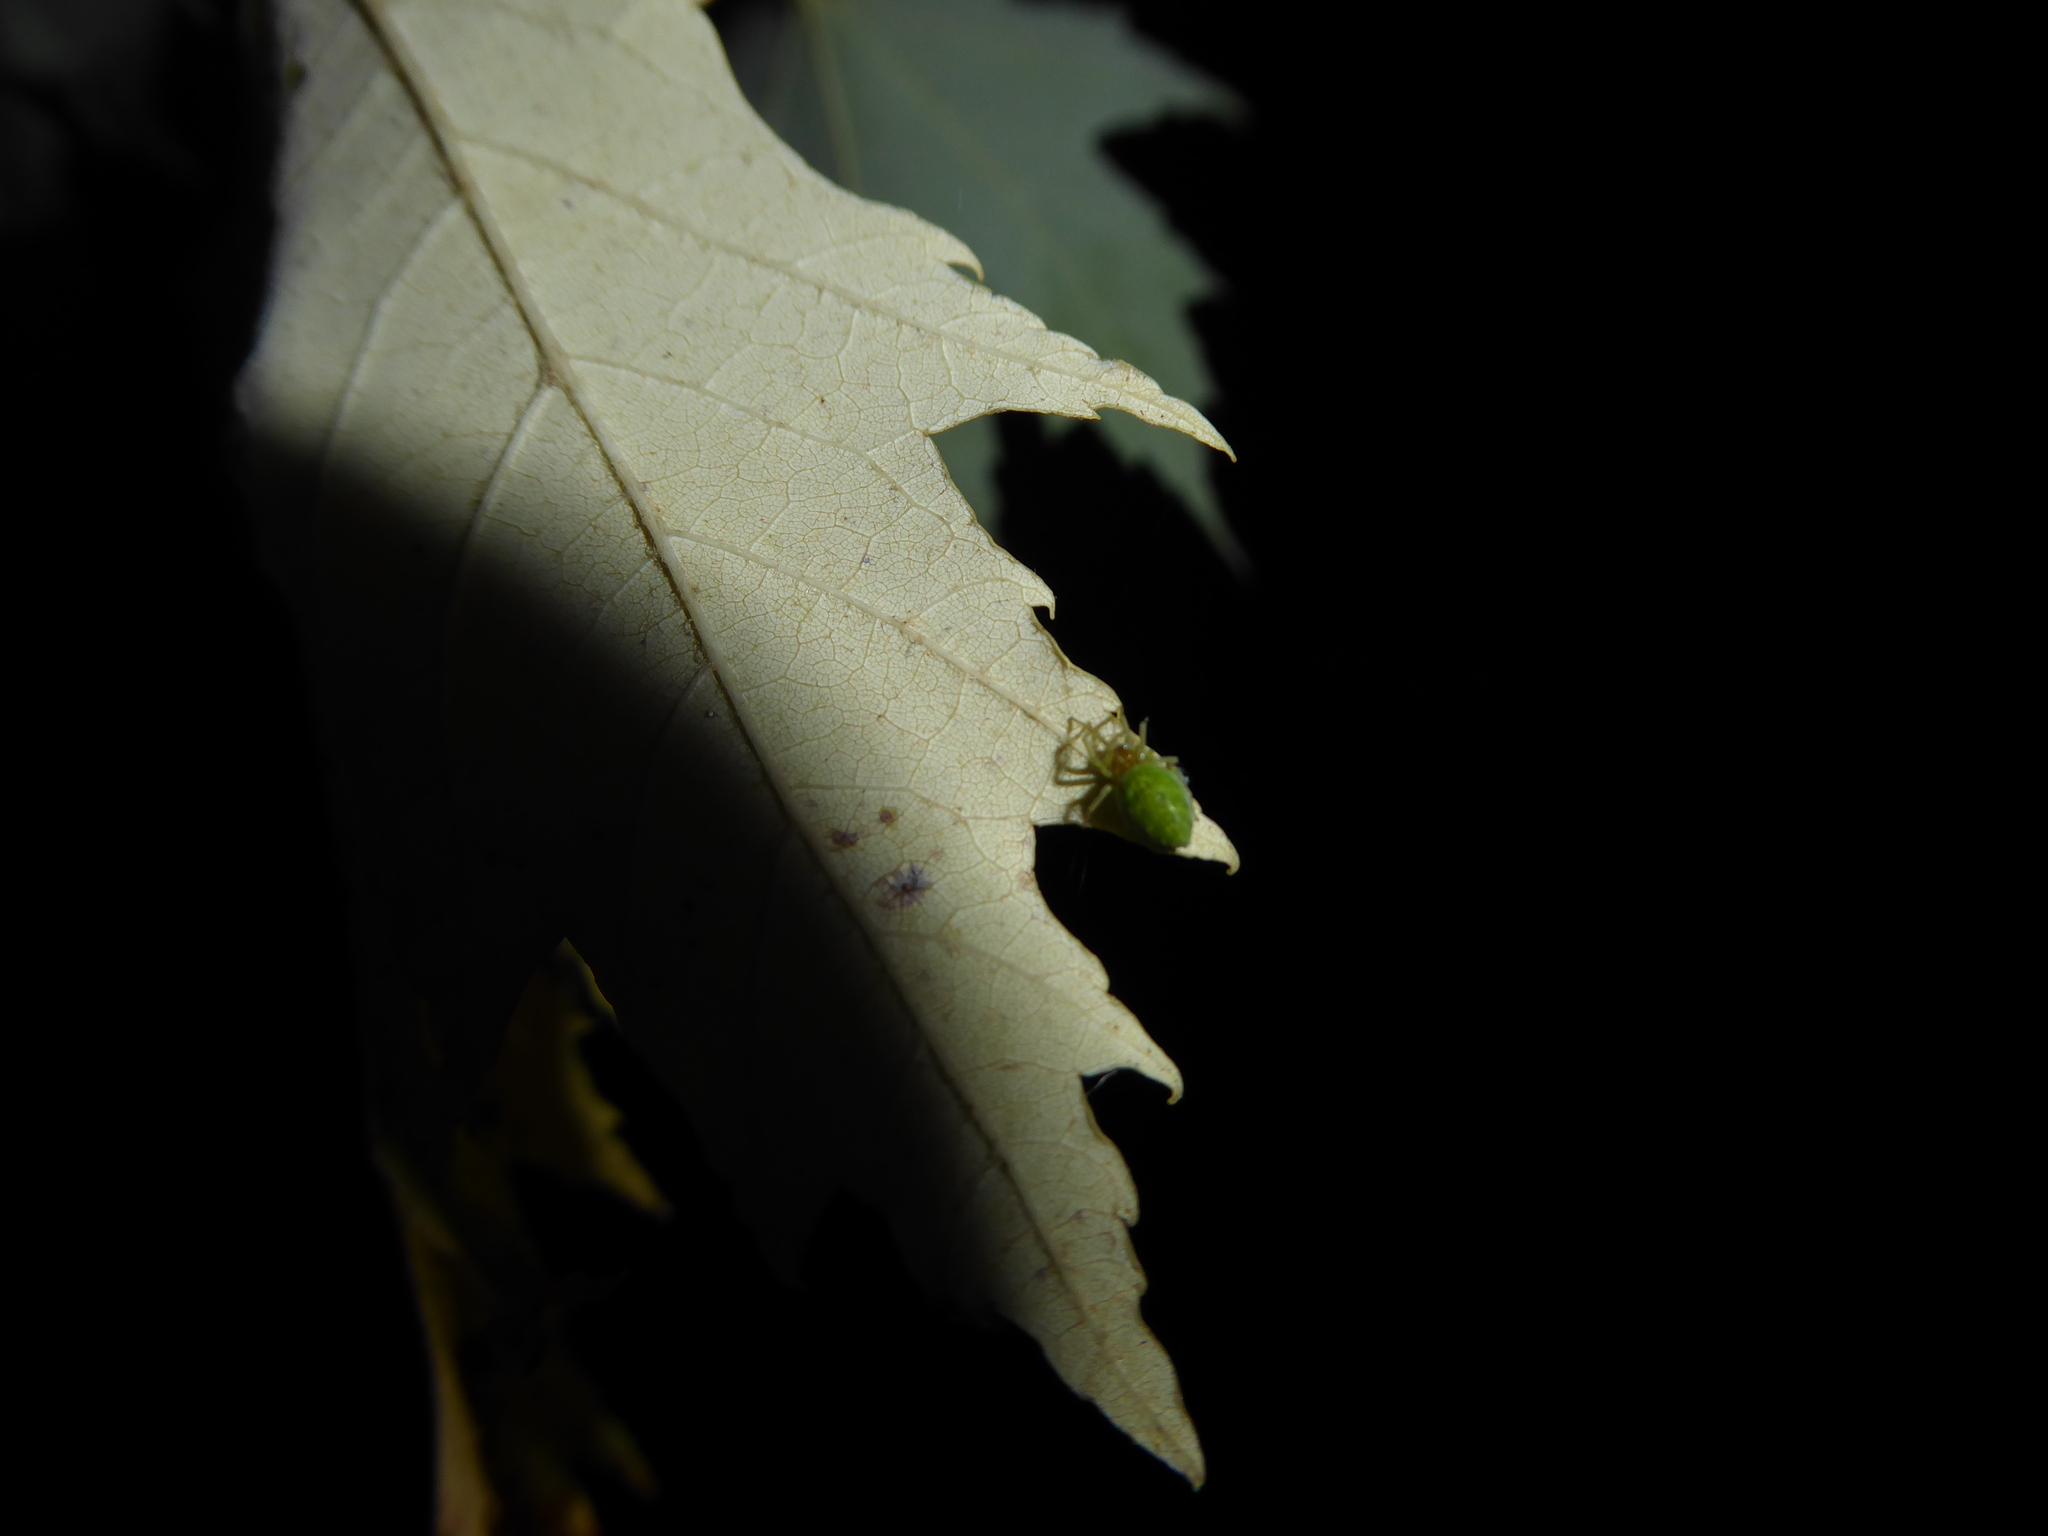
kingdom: Animalia
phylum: Arthropoda
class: Arachnida
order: Araneae
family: Dictynidae
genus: Nigma
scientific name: Nigma walckenaeri
